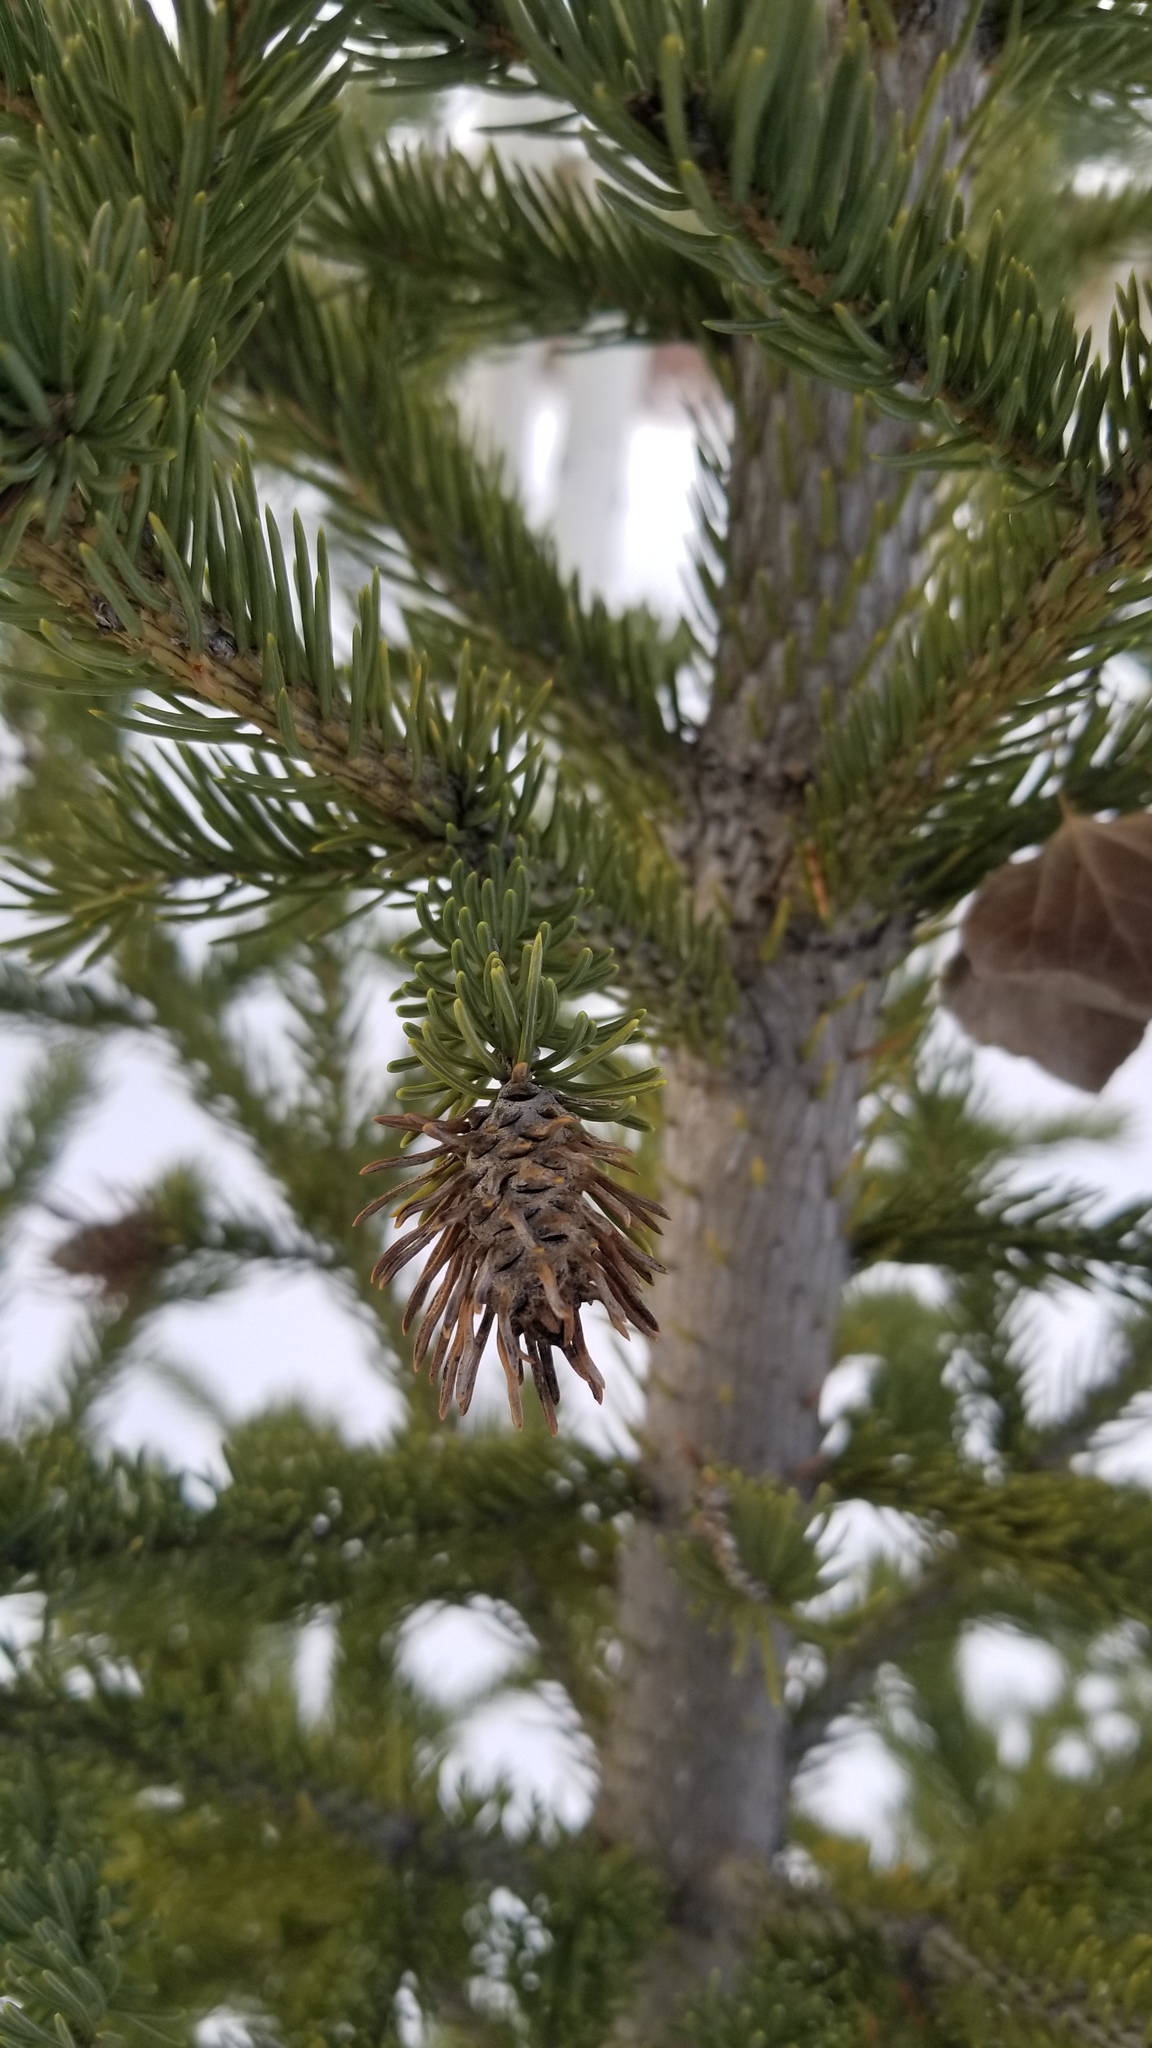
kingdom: Animalia
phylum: Arthropoda
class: Insecta
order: Hemiptera
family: Adelgidae
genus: Adelges
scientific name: Adelges cooleyi
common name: Cooley spruce gall adelgid
